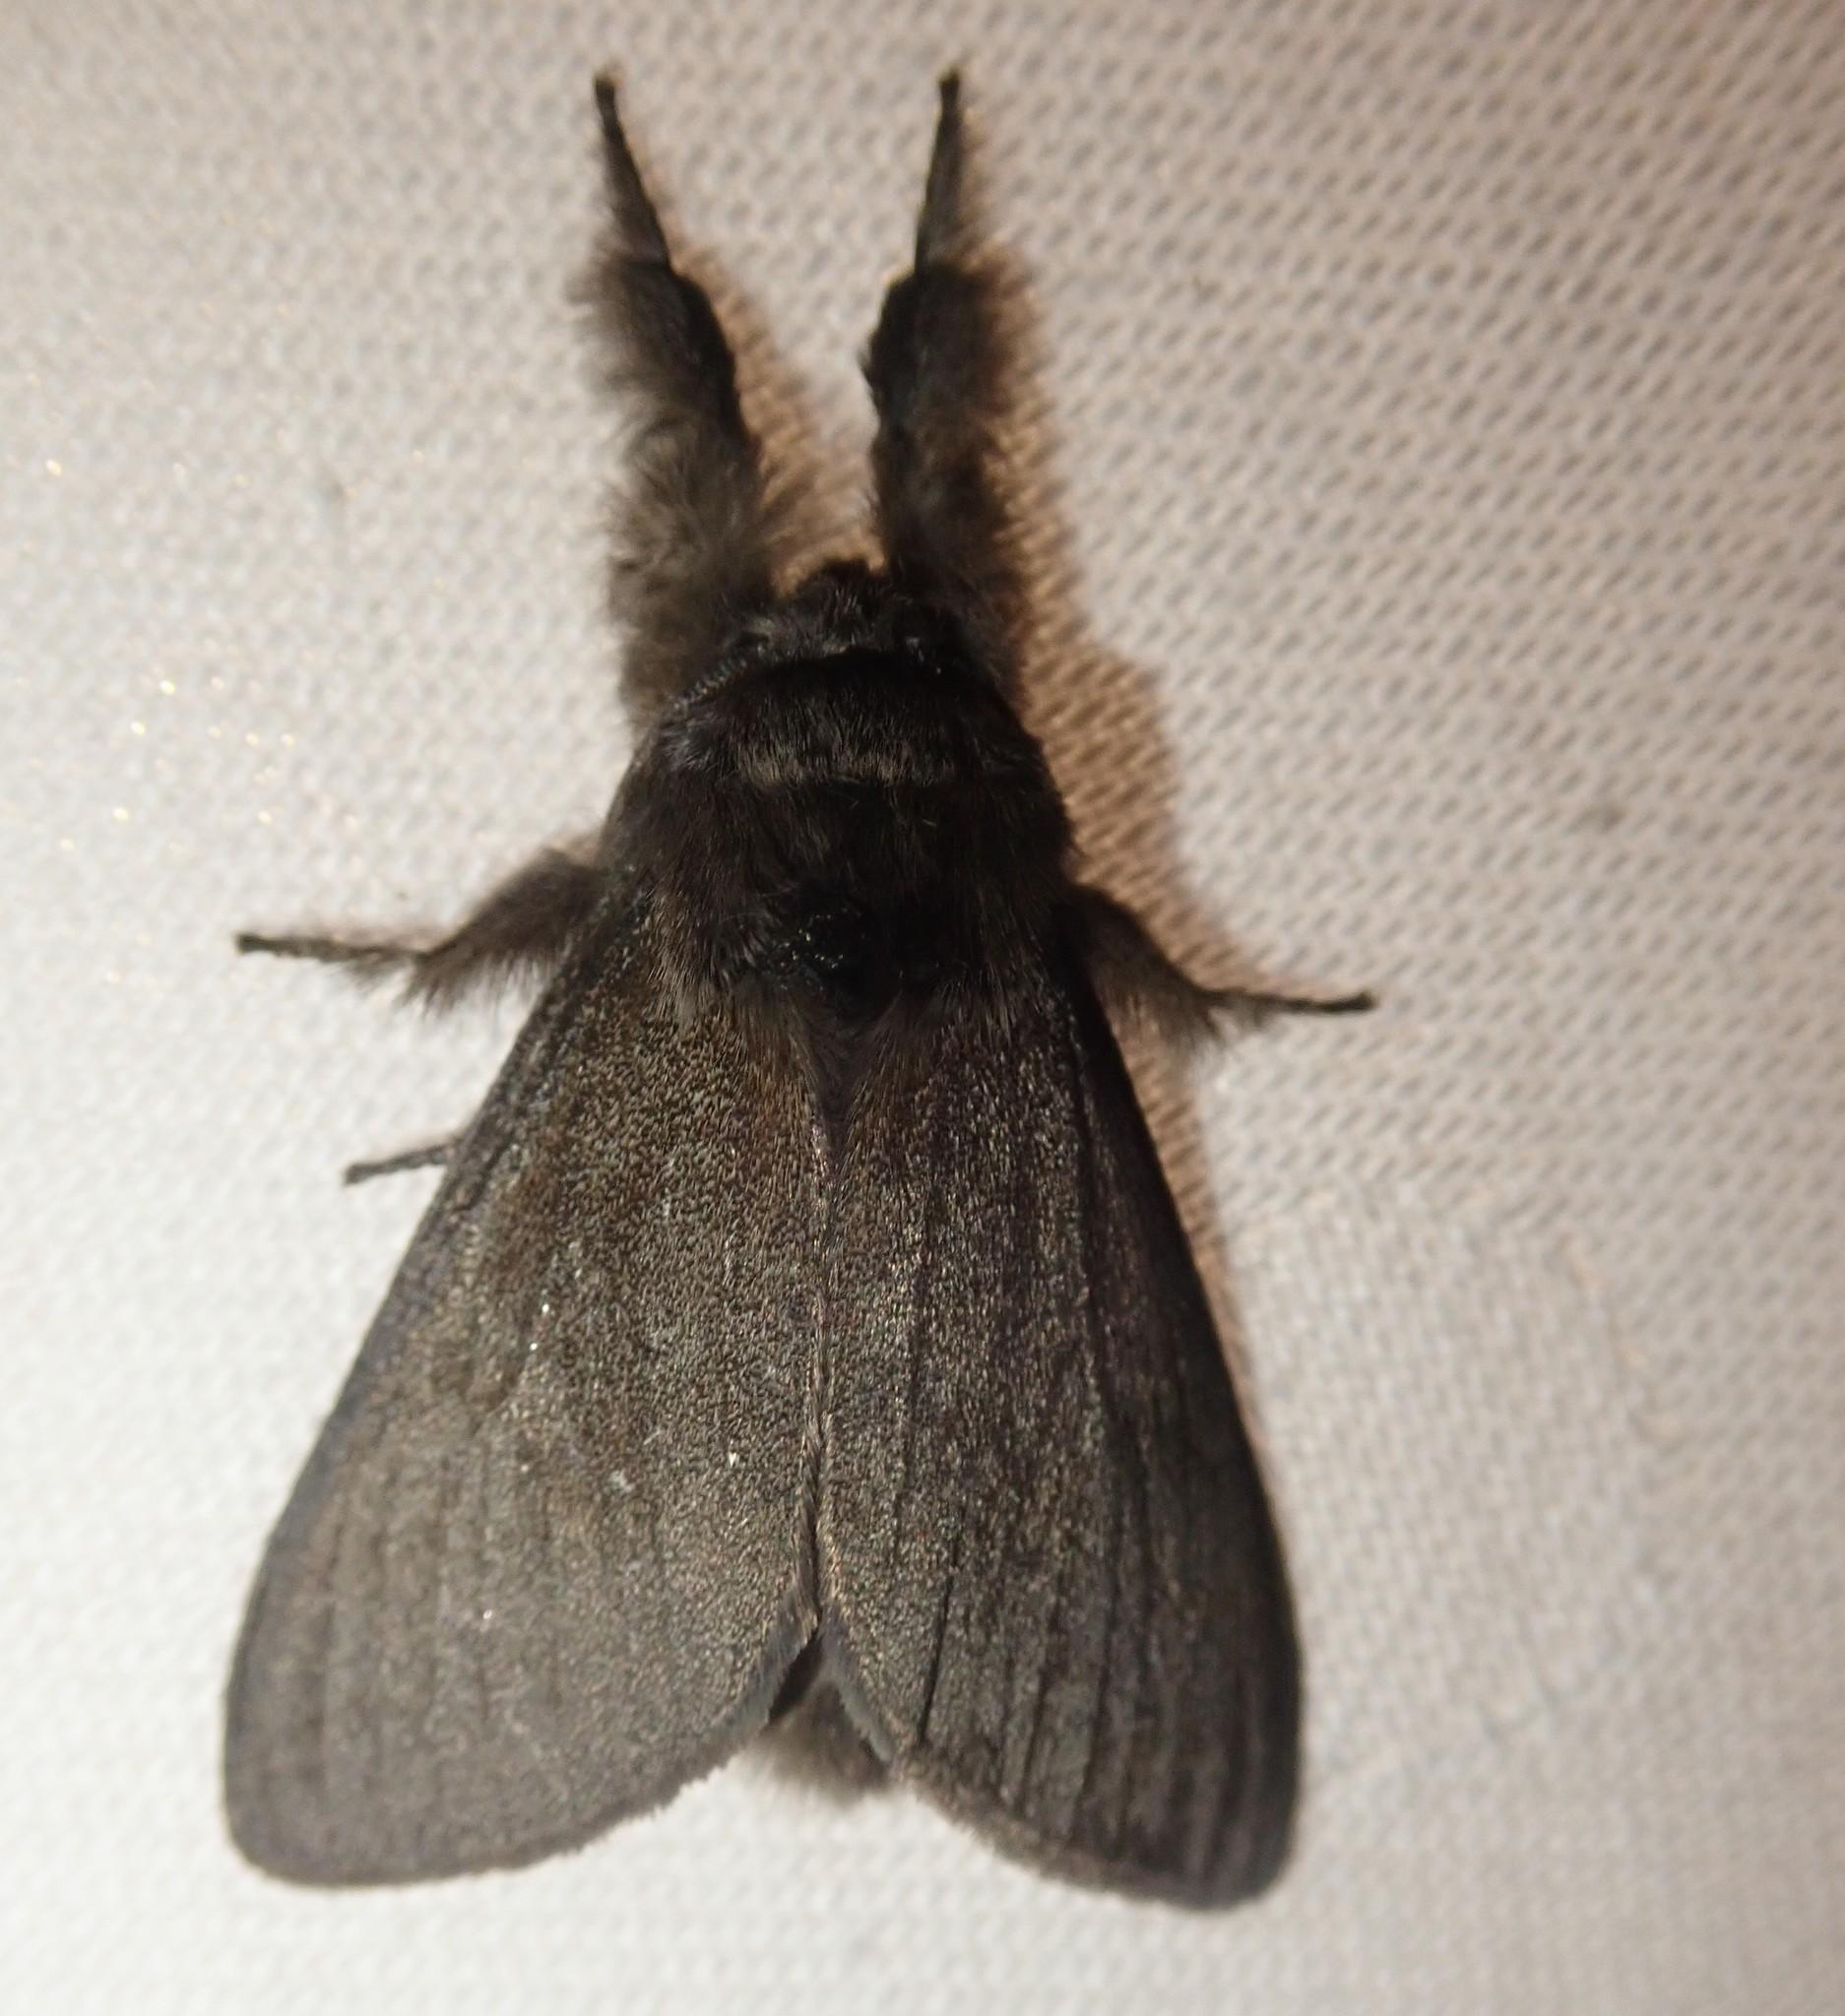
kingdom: Animalia
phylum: Arthropoda
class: Insecta
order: Lepidoptera
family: Erebidae
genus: Calliteara
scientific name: Calliteara pudibunda
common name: Pale tussock
